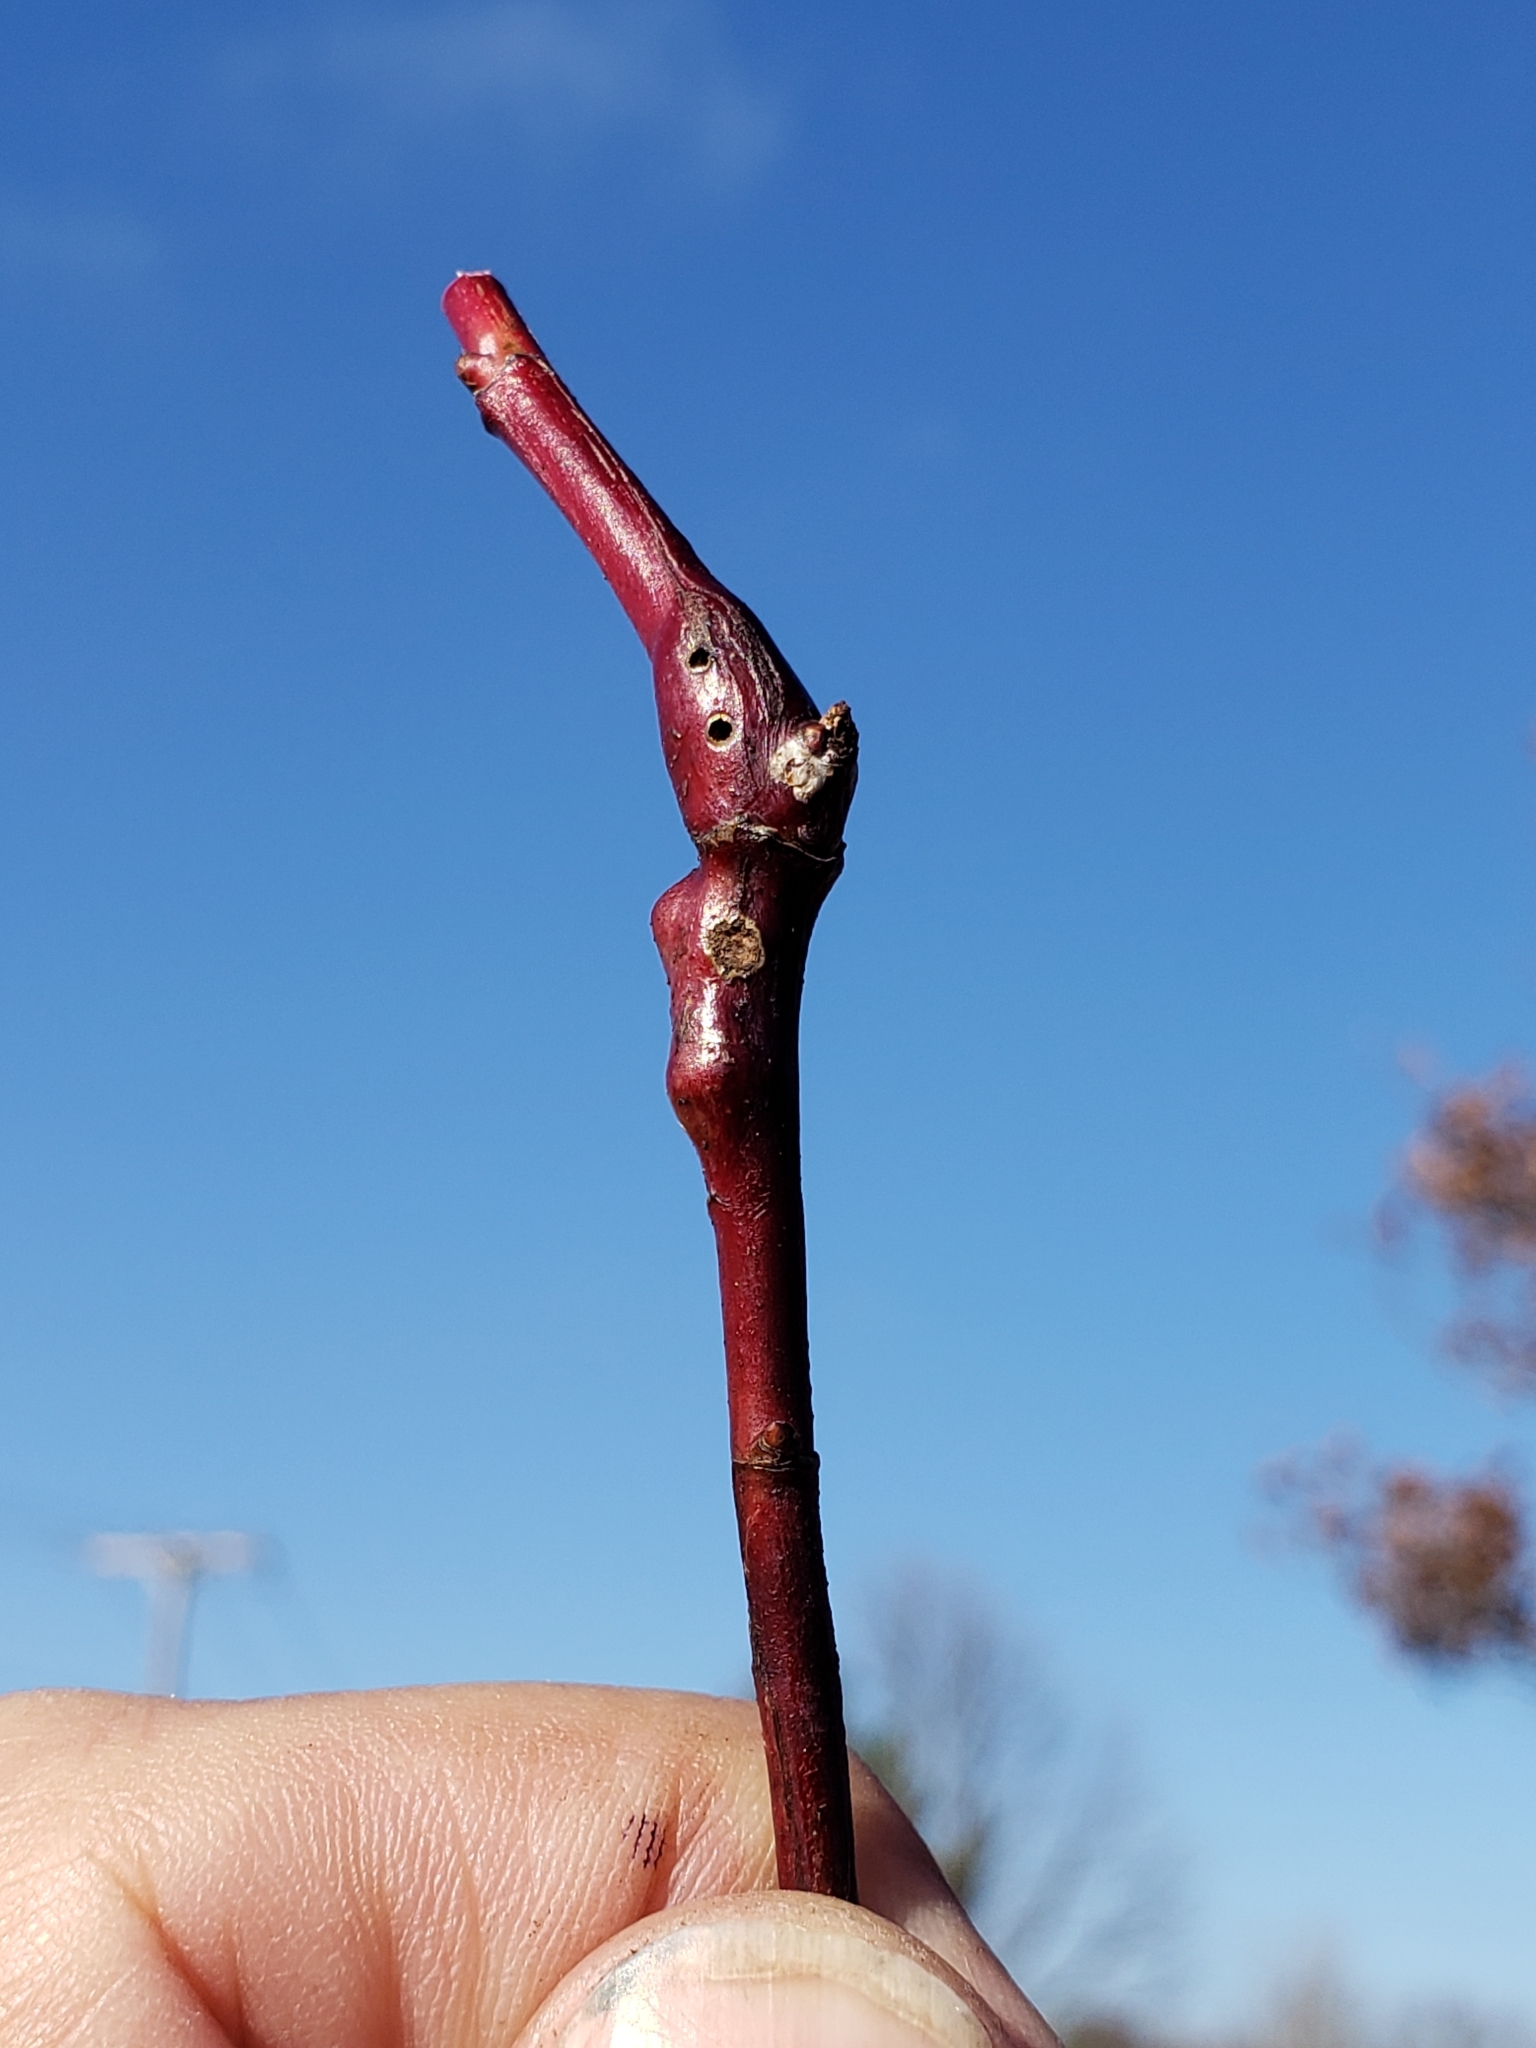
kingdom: Animalia
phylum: Arthropoda
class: Insecta
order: Hymenoptera
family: Cynipidae
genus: Diplolepis
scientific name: Diplolepis nodulosa
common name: Rose stem gall wasp
